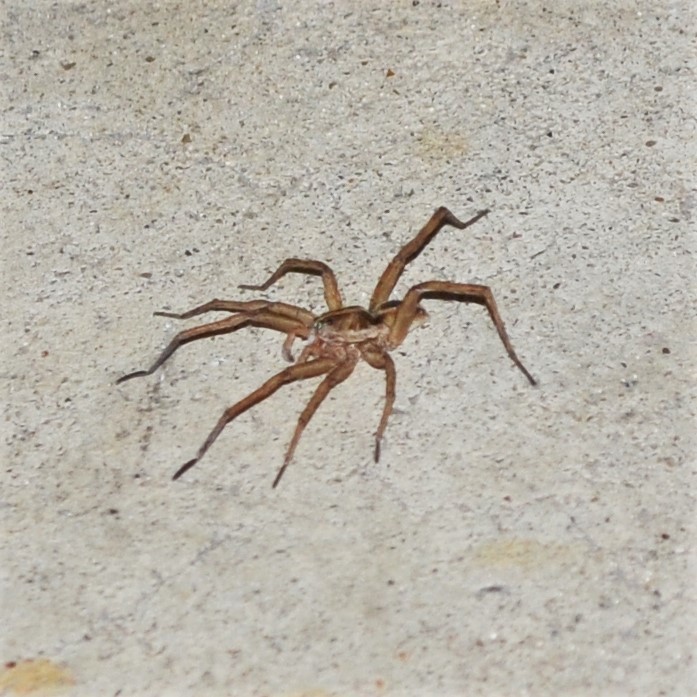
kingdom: Animalia
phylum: Arthropoda
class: Arachnida
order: Araneae
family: Lycosidae
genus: Tigrosa
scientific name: Tigrosa annexa
